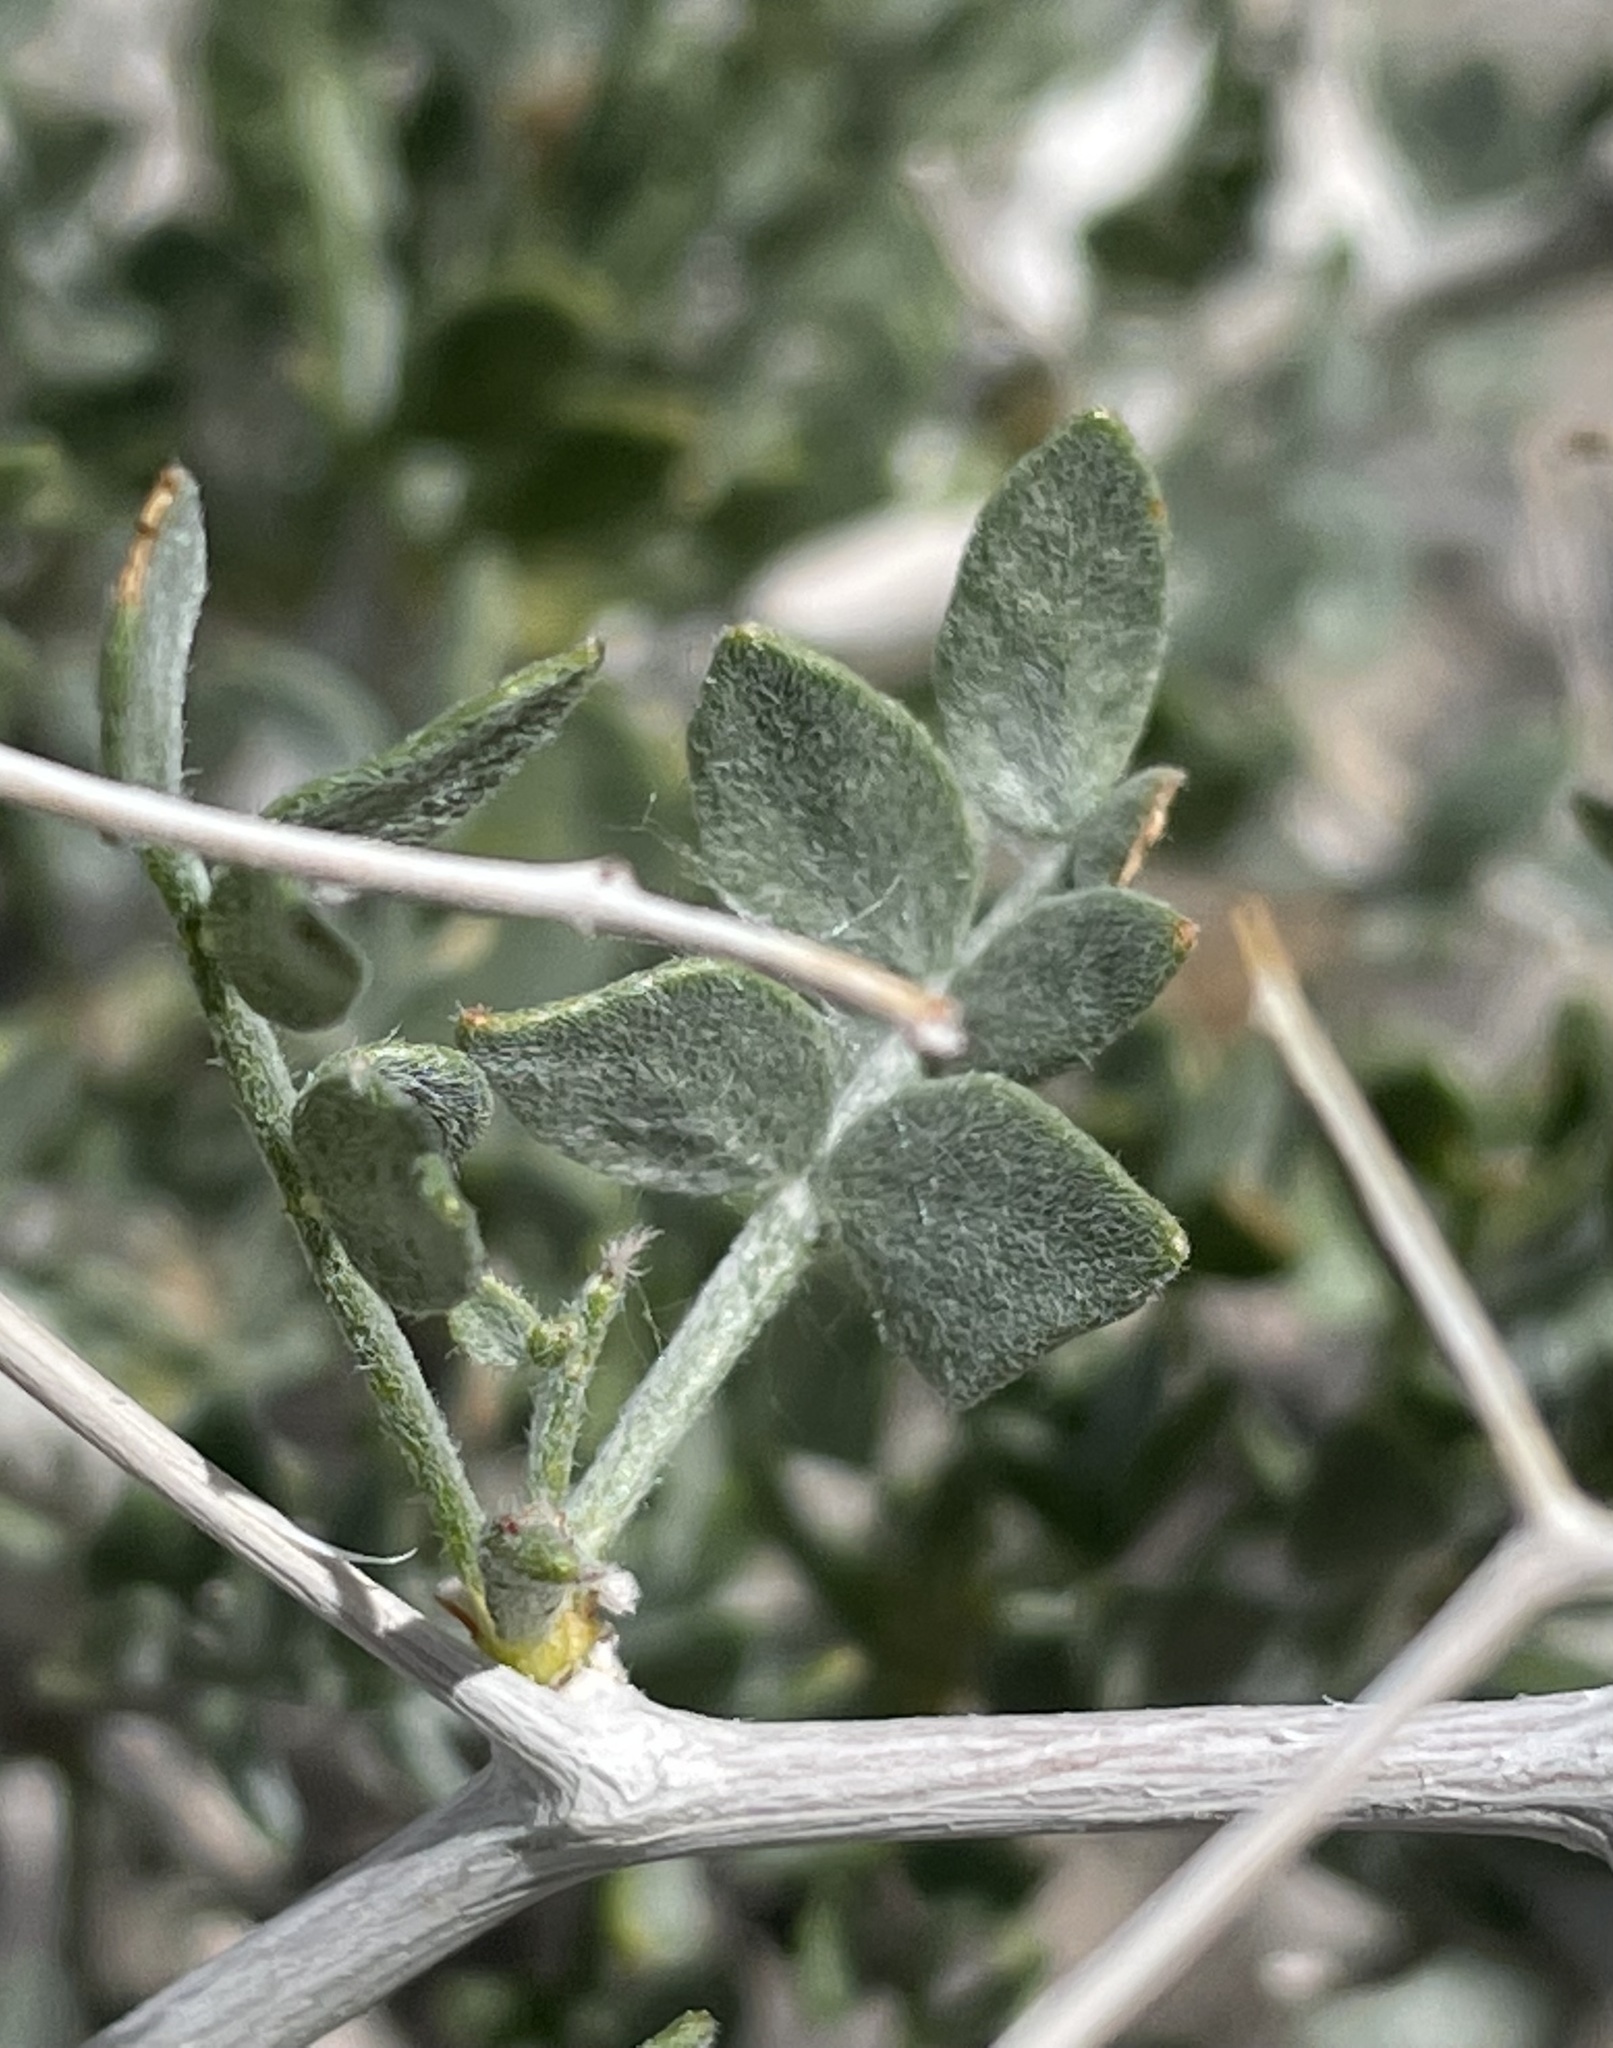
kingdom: Plantae
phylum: Tracheophyta
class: Magnoliopsida
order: Fabales
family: Fabaceae
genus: Psorothamnus
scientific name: Psorothamnus arborescens
